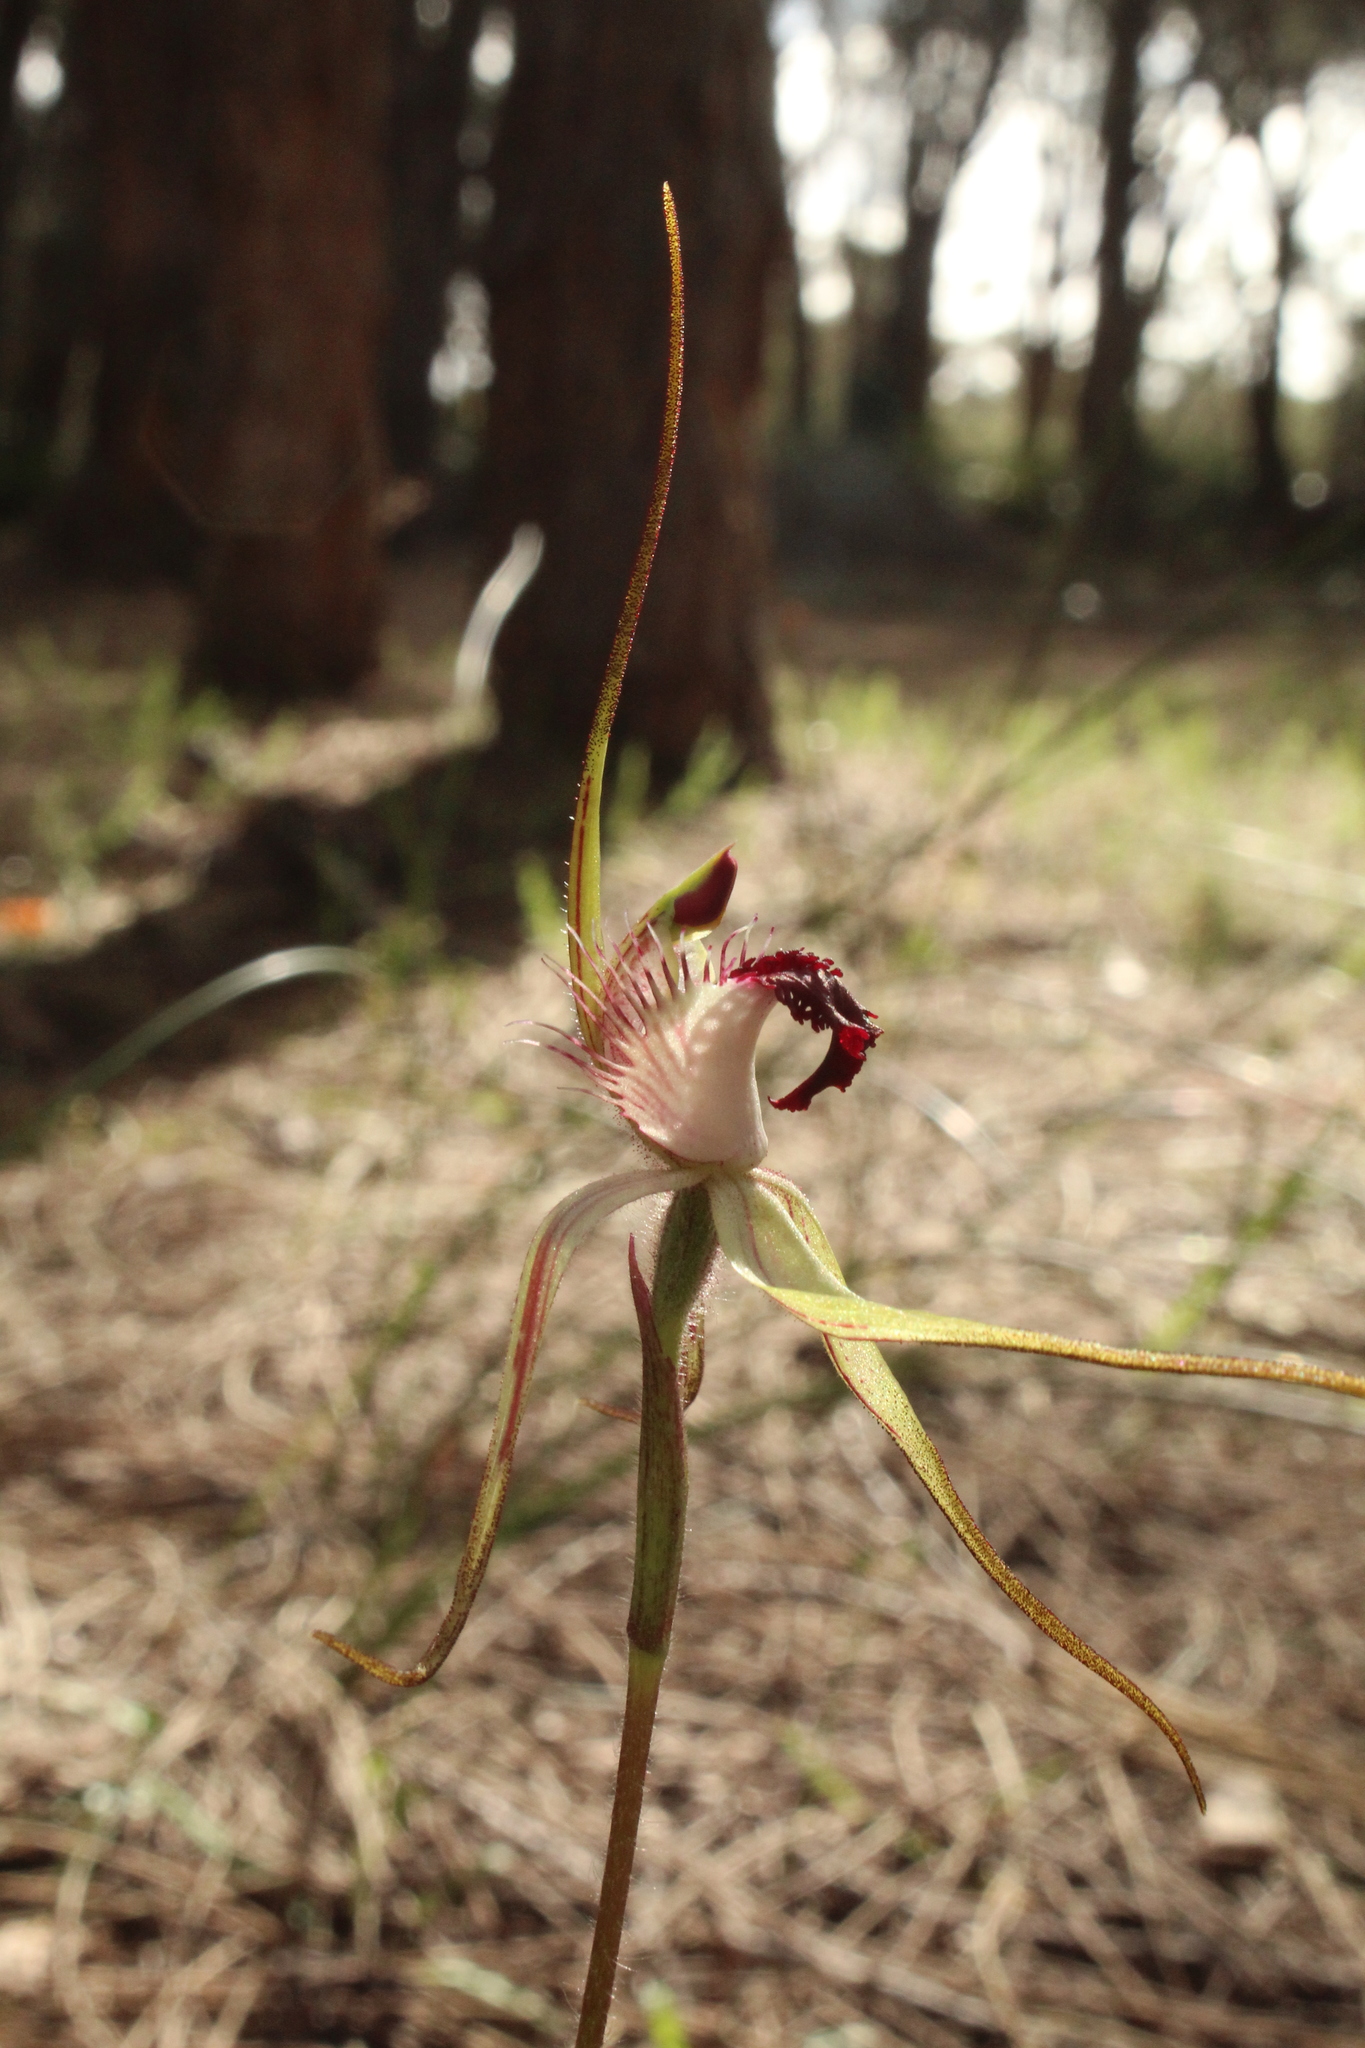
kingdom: Plantae
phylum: Tracheophyta
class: Liliopsida
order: Asparagales
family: Orchidaceae
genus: Caladenia
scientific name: Caladenia heberleana
